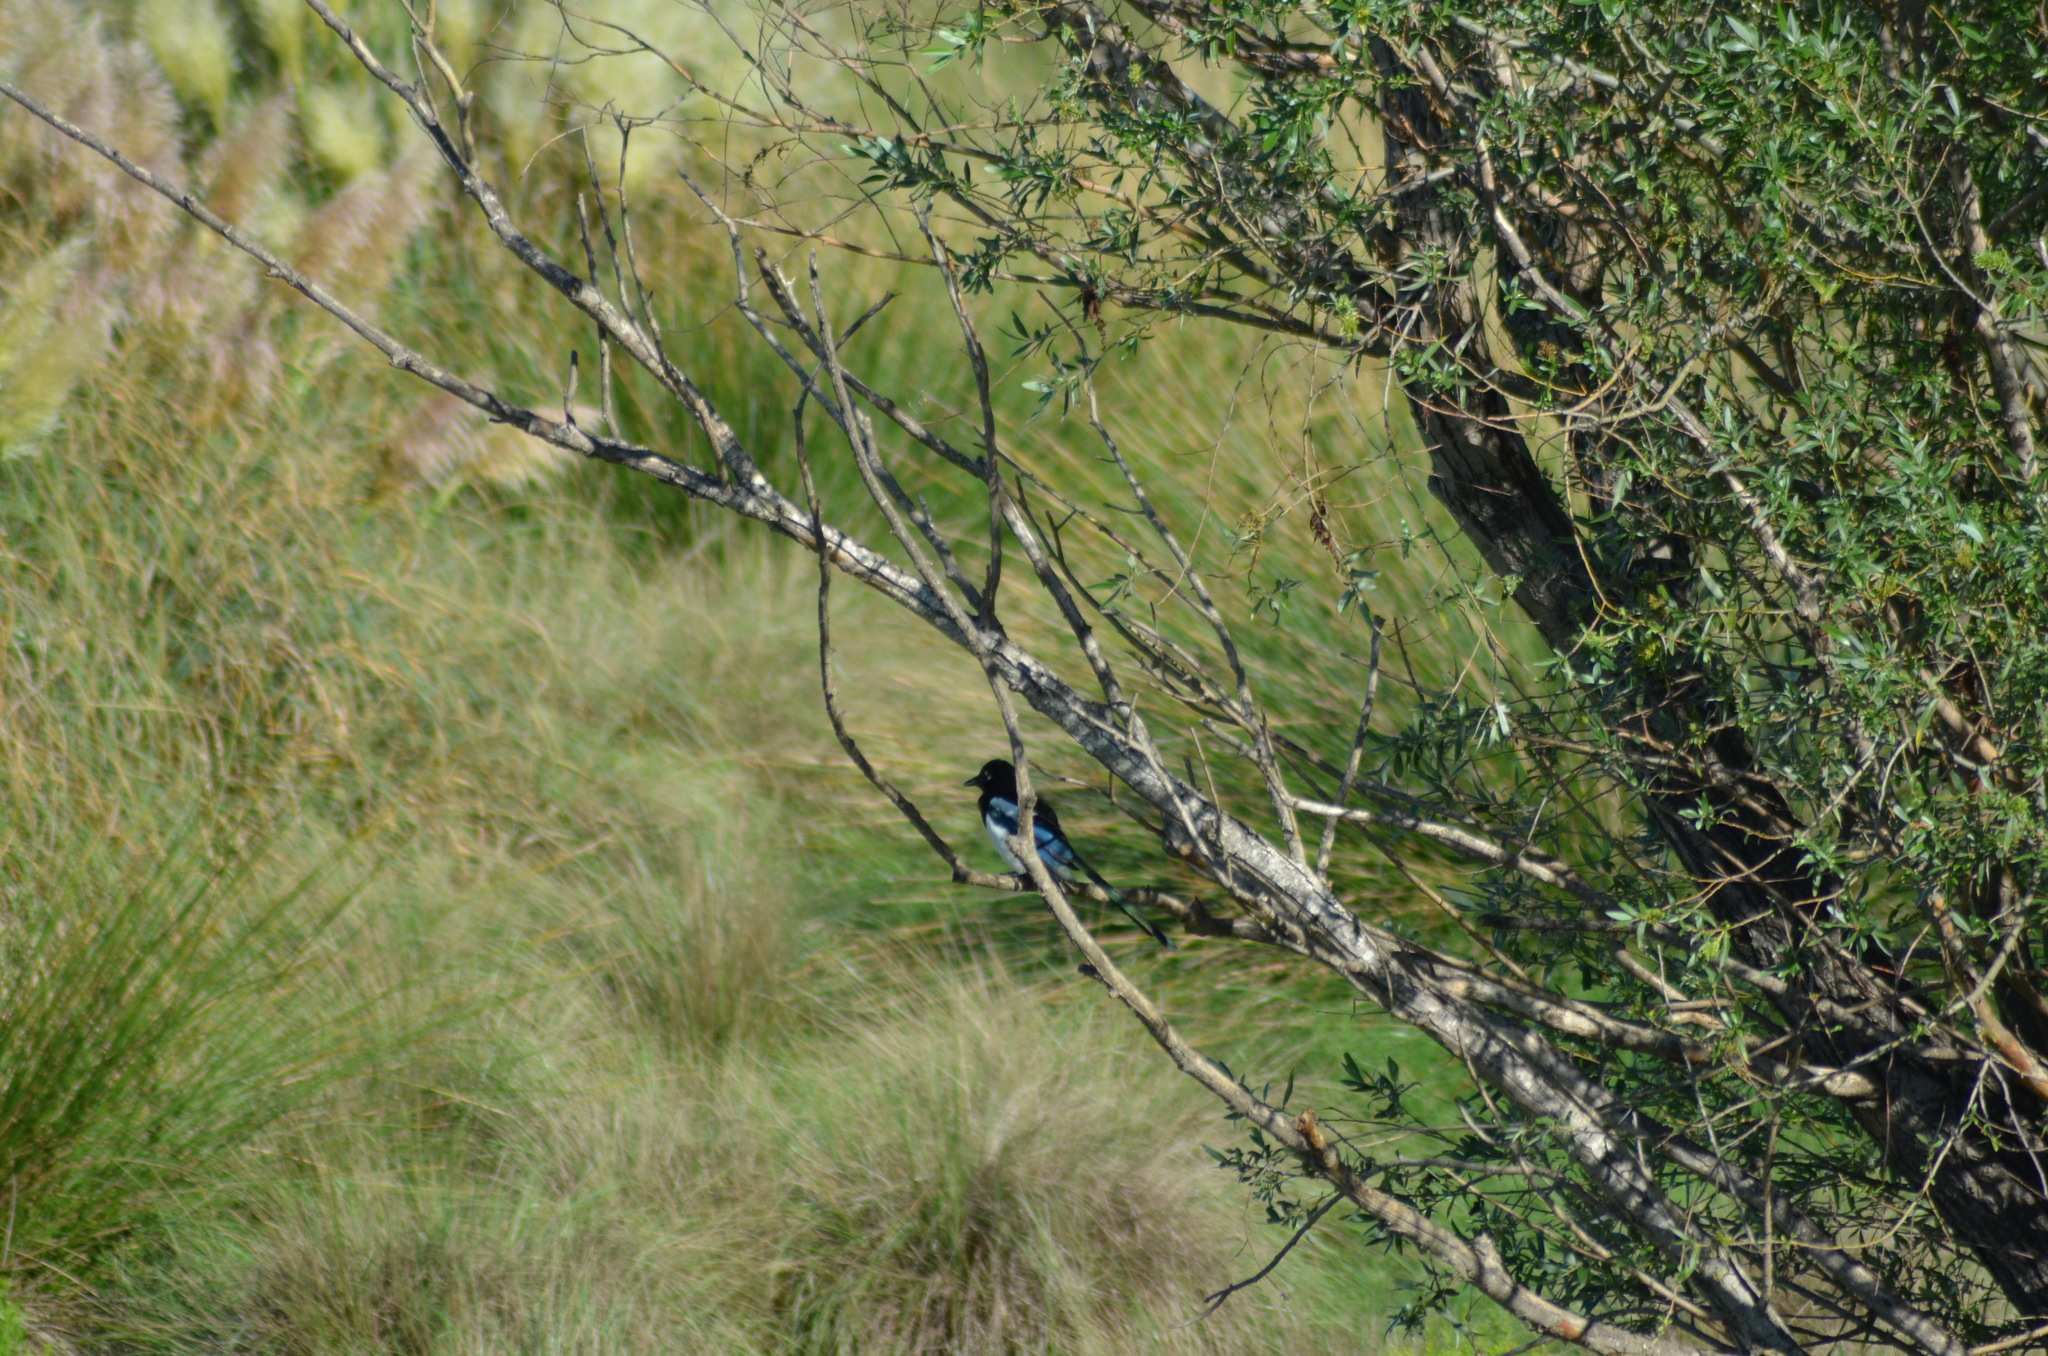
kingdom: Animalia
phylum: Chordata
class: Aves
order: Passeriformes
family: Corvidae
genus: Pica
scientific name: Pica pica
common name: Eurasian magpie
